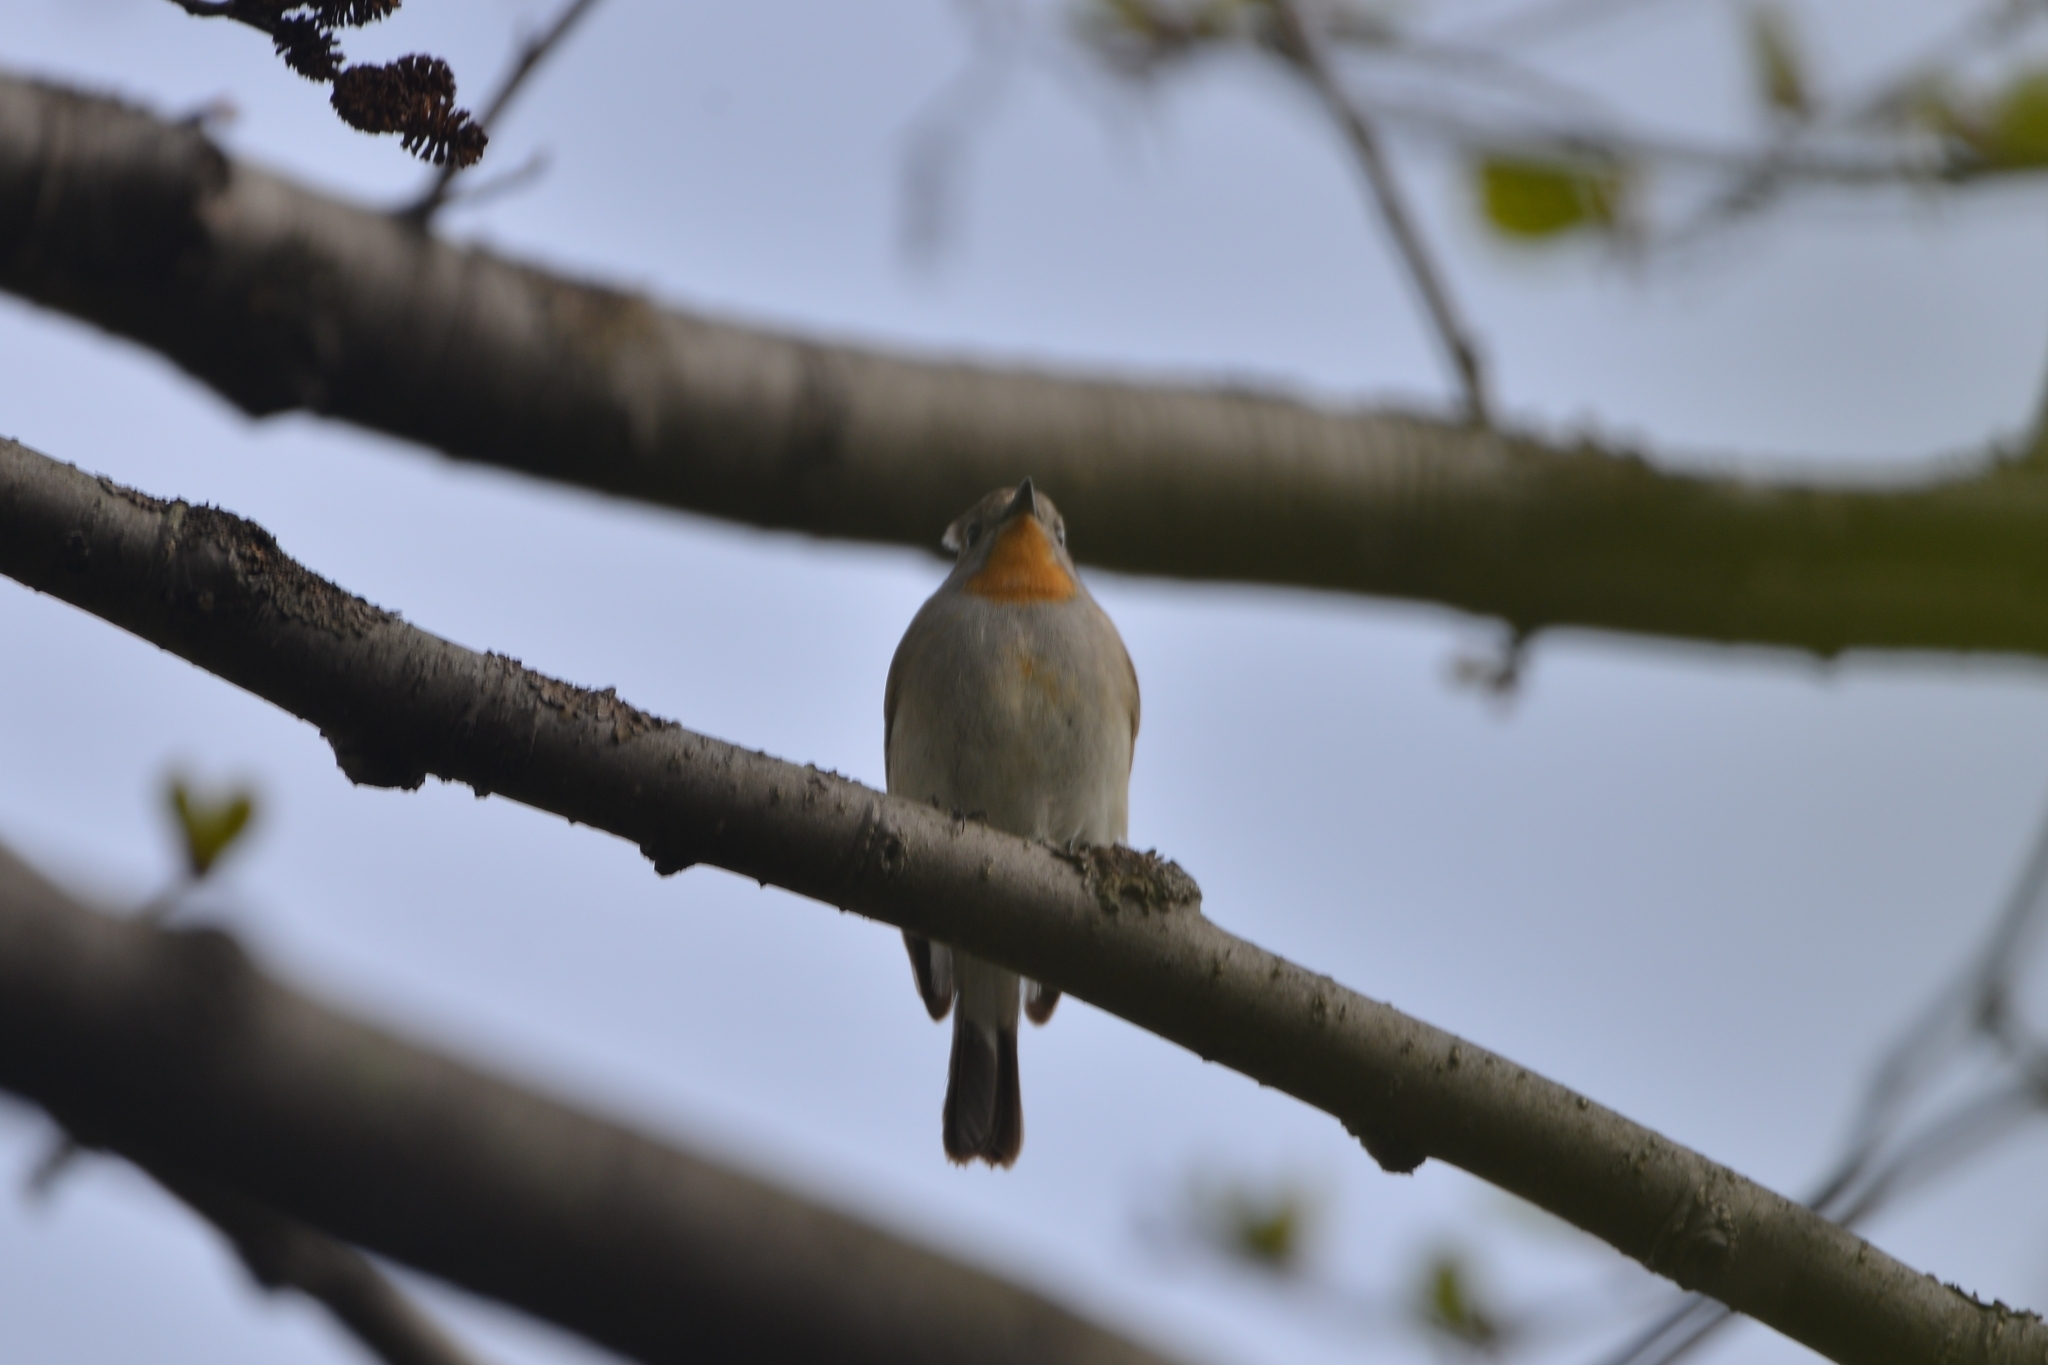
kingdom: Animalia
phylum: Chordata
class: Aves
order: Passeriformes
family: Muscicapidae
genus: Ficedula
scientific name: Ficedula albicilla
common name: Taiga flycatcher
